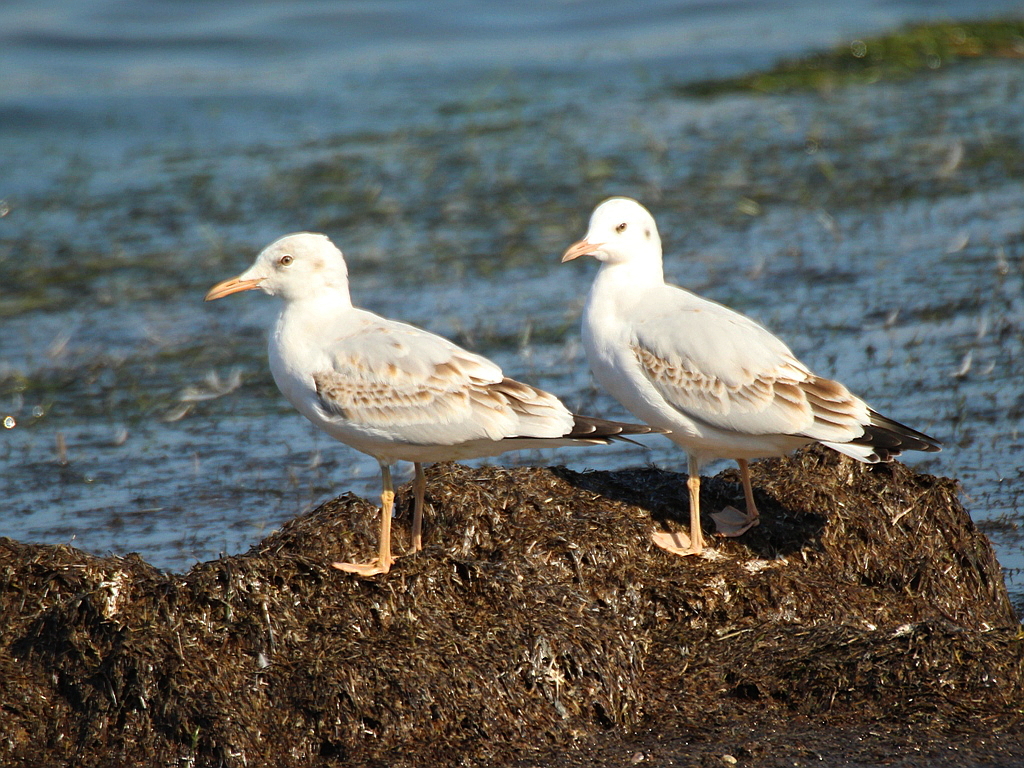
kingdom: Animalia
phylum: Chordata
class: Aves
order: Charadriiformes
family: Laridae
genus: Chroicocephalus
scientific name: Chroicocephalus genei
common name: Slender-billed gull
